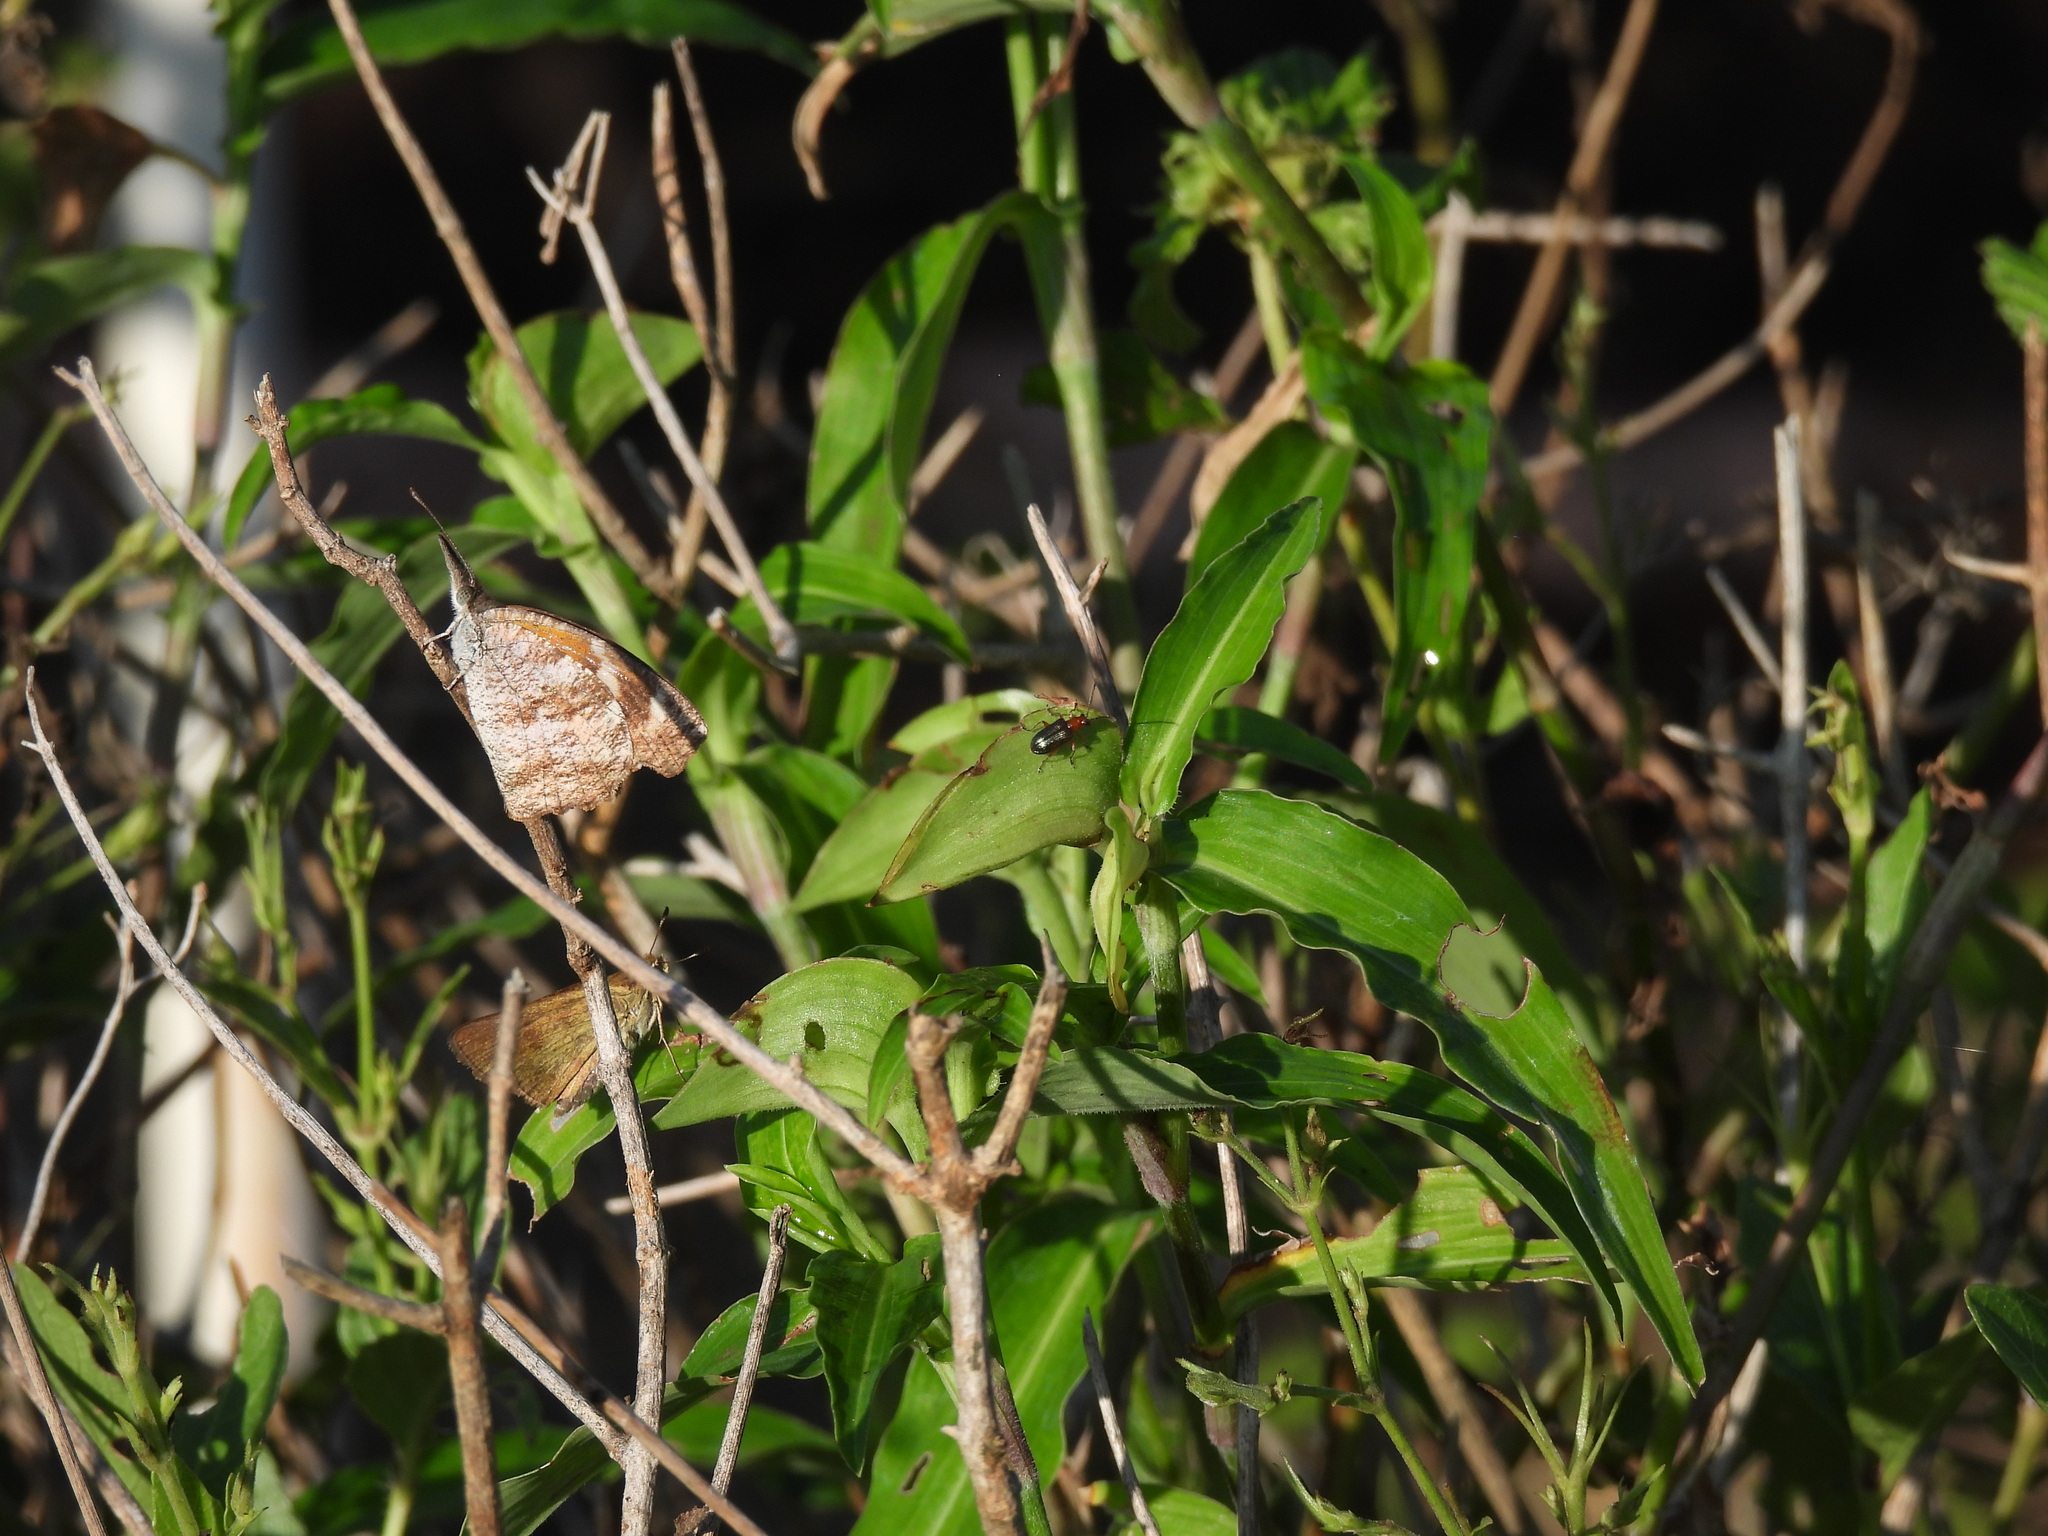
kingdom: Animalia
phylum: Arthropoda
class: Insecta
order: Lepidoptera
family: Nymphalidae
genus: Libytheana
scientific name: Libytheana carinenta
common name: American snout
